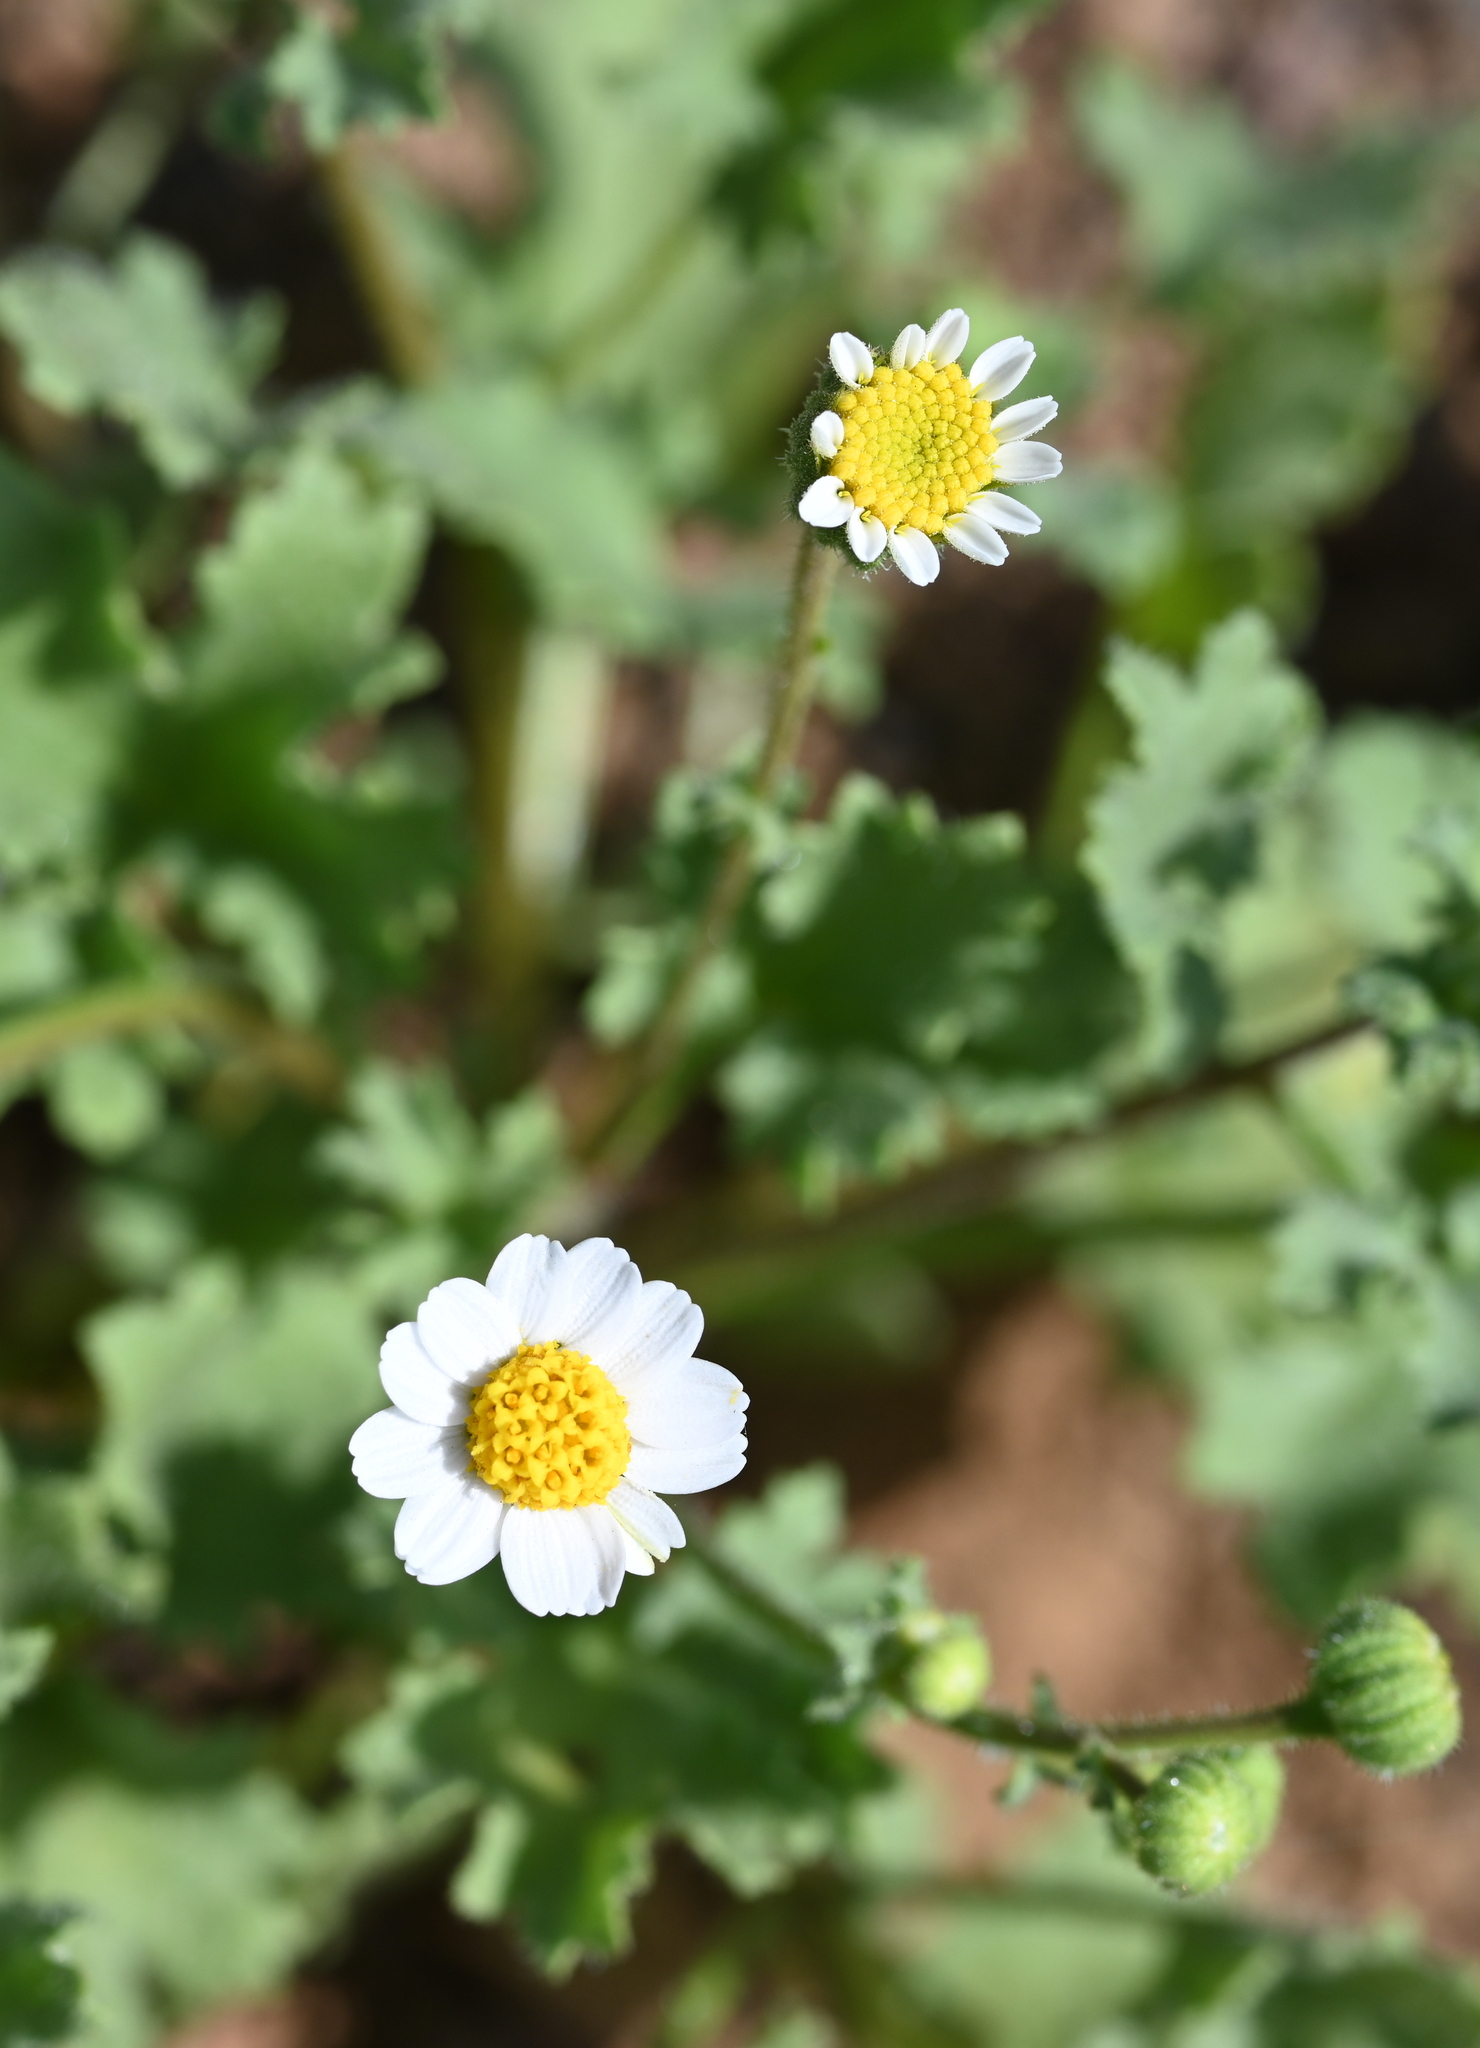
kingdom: Plantae
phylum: Tracheophyta
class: Magnoliopsida
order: Asterales
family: Asteraceae
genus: Laphamia
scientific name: Laphamia emoryi
